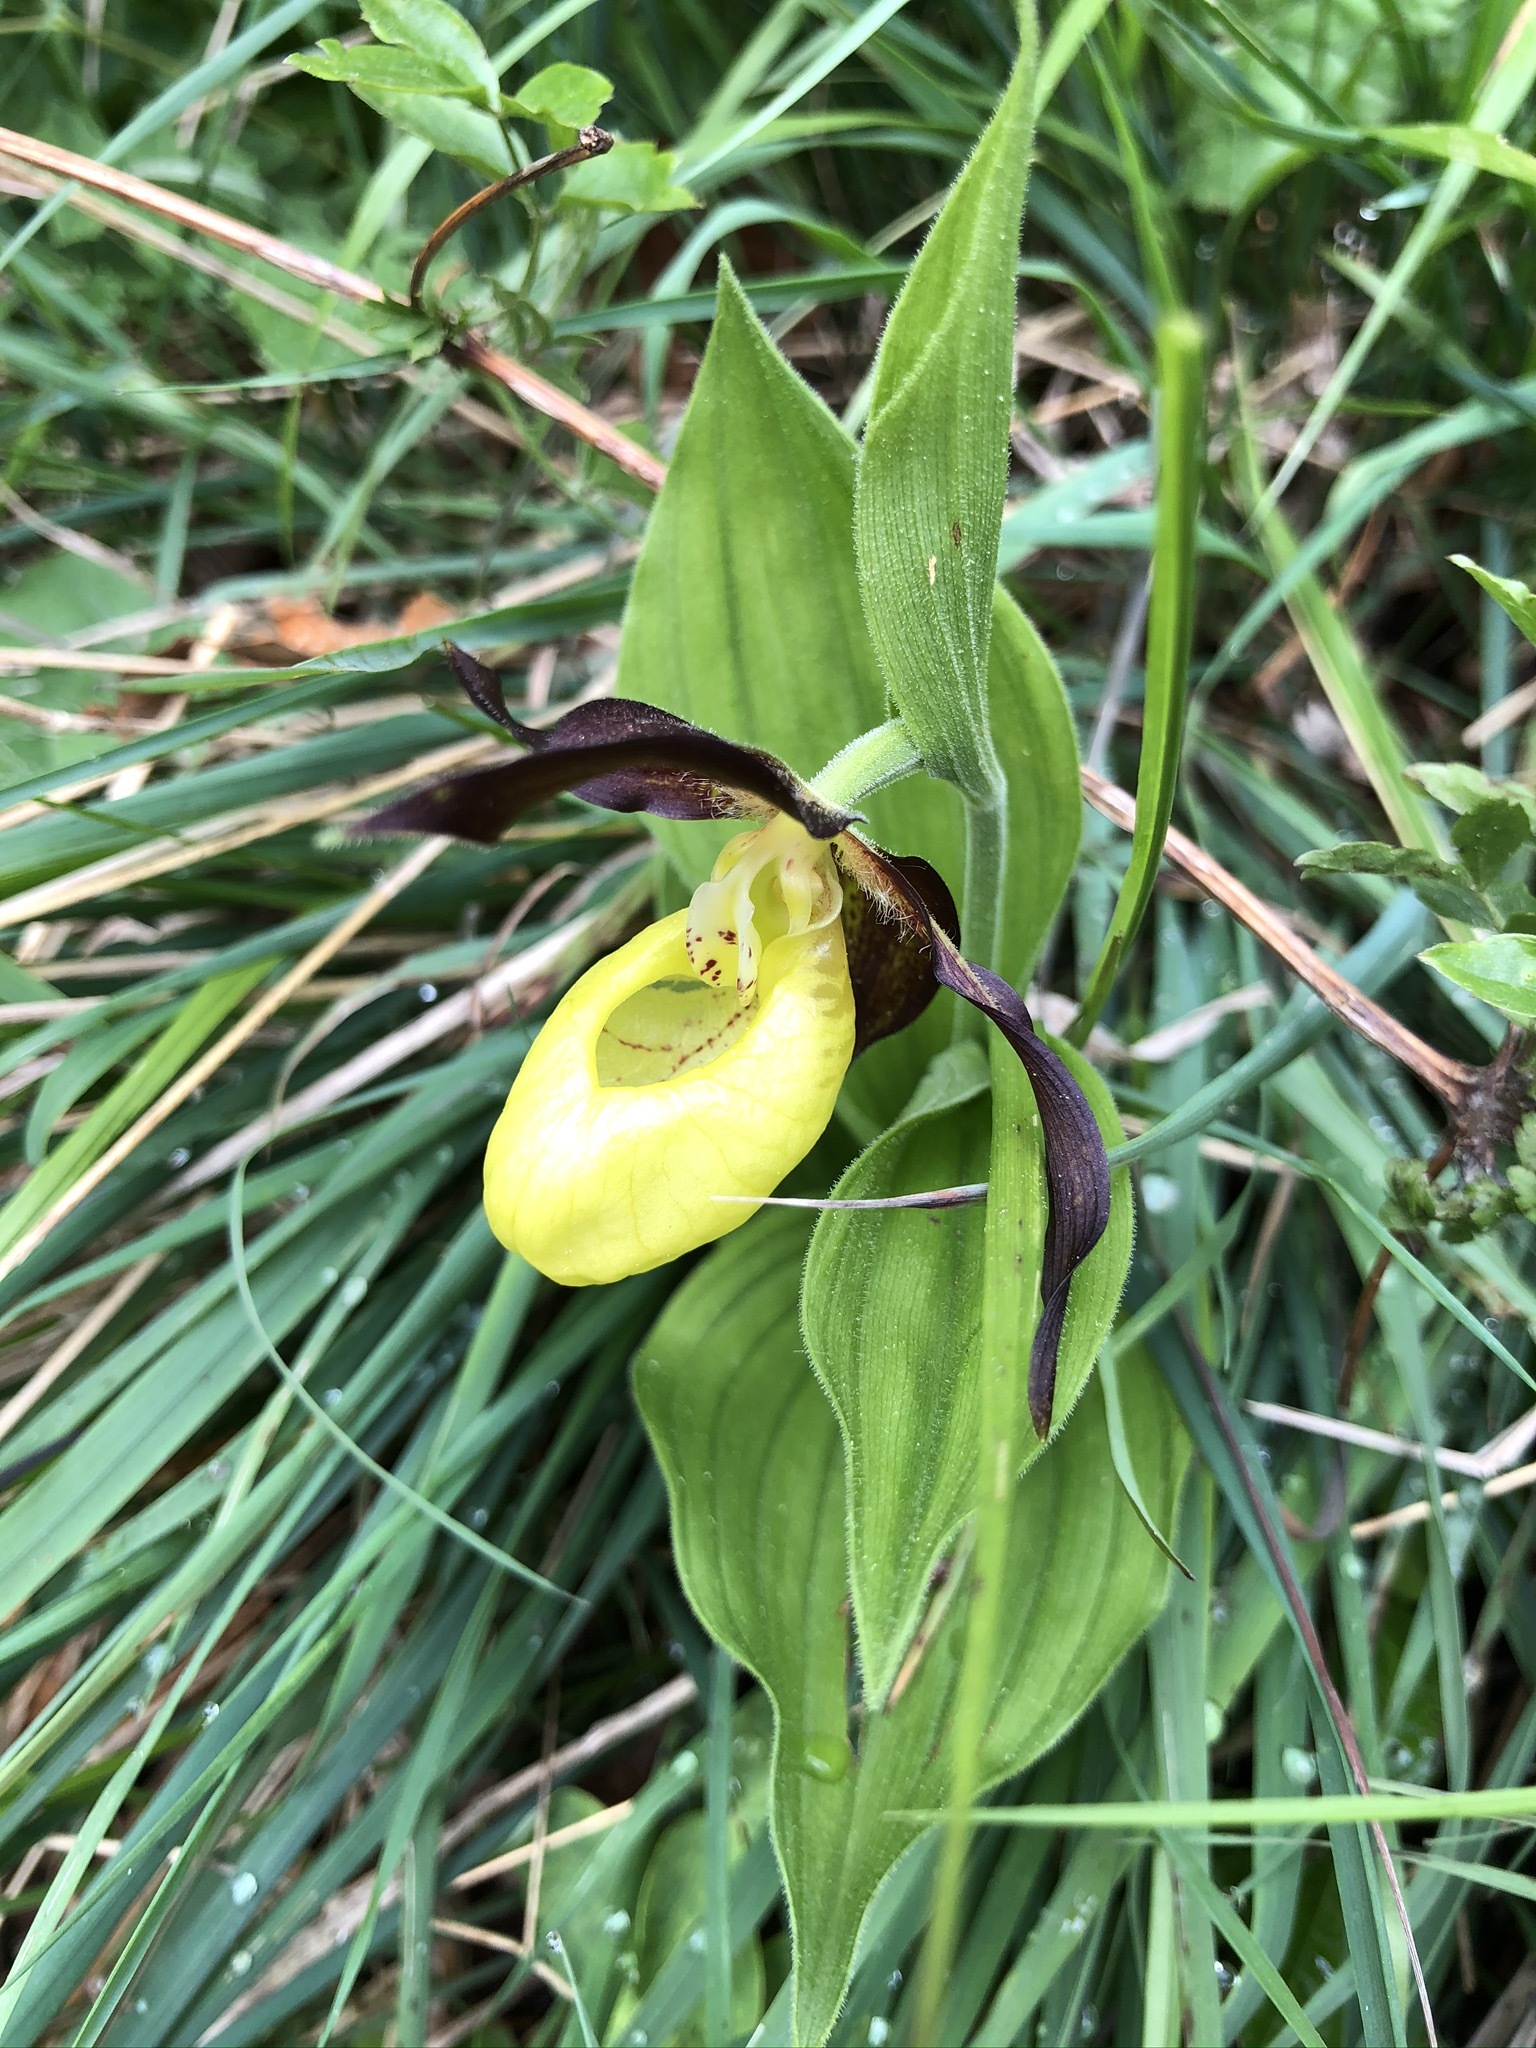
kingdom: Plantae
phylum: Tracheophyta
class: Liliopsida
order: Asparagales
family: Orchidaceae
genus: Cypripedium
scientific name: Cypripedium calceolus
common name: Lady's-slipper
